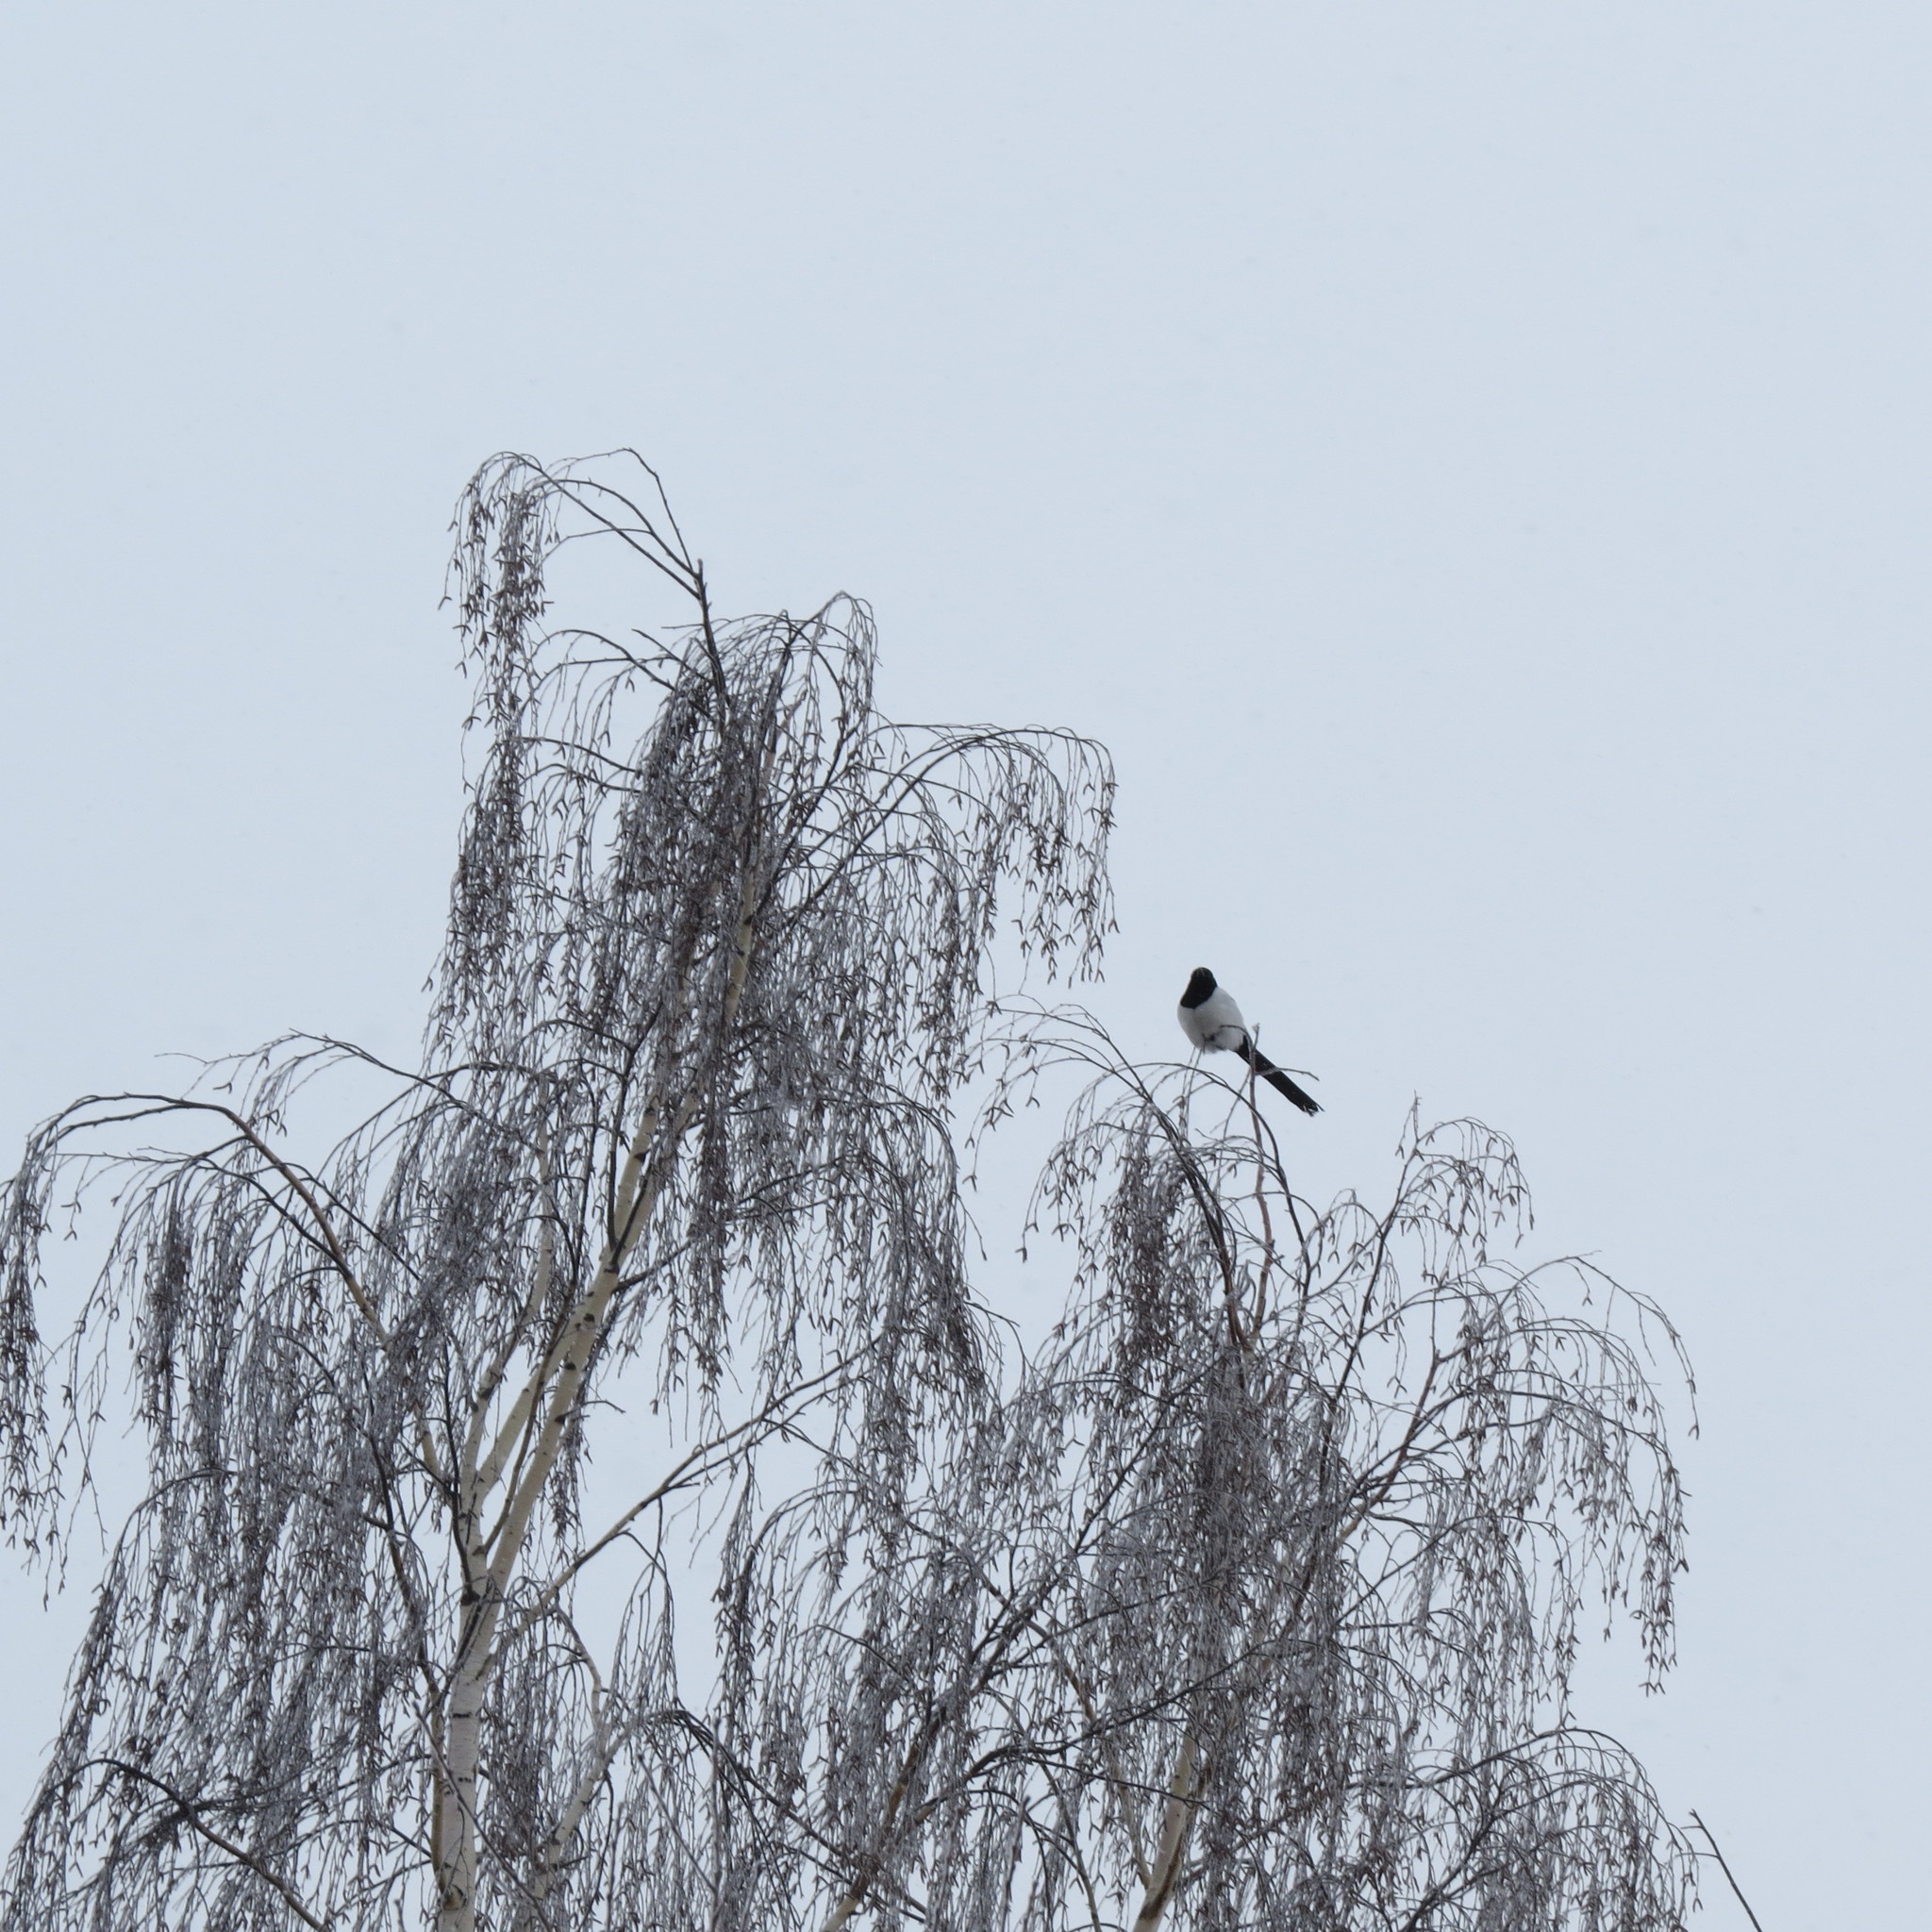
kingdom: Animalia
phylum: Chordata
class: Aves
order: Passeriformes
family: Corvidae
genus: Pica
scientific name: Pica pica
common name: Eurasian magpie
